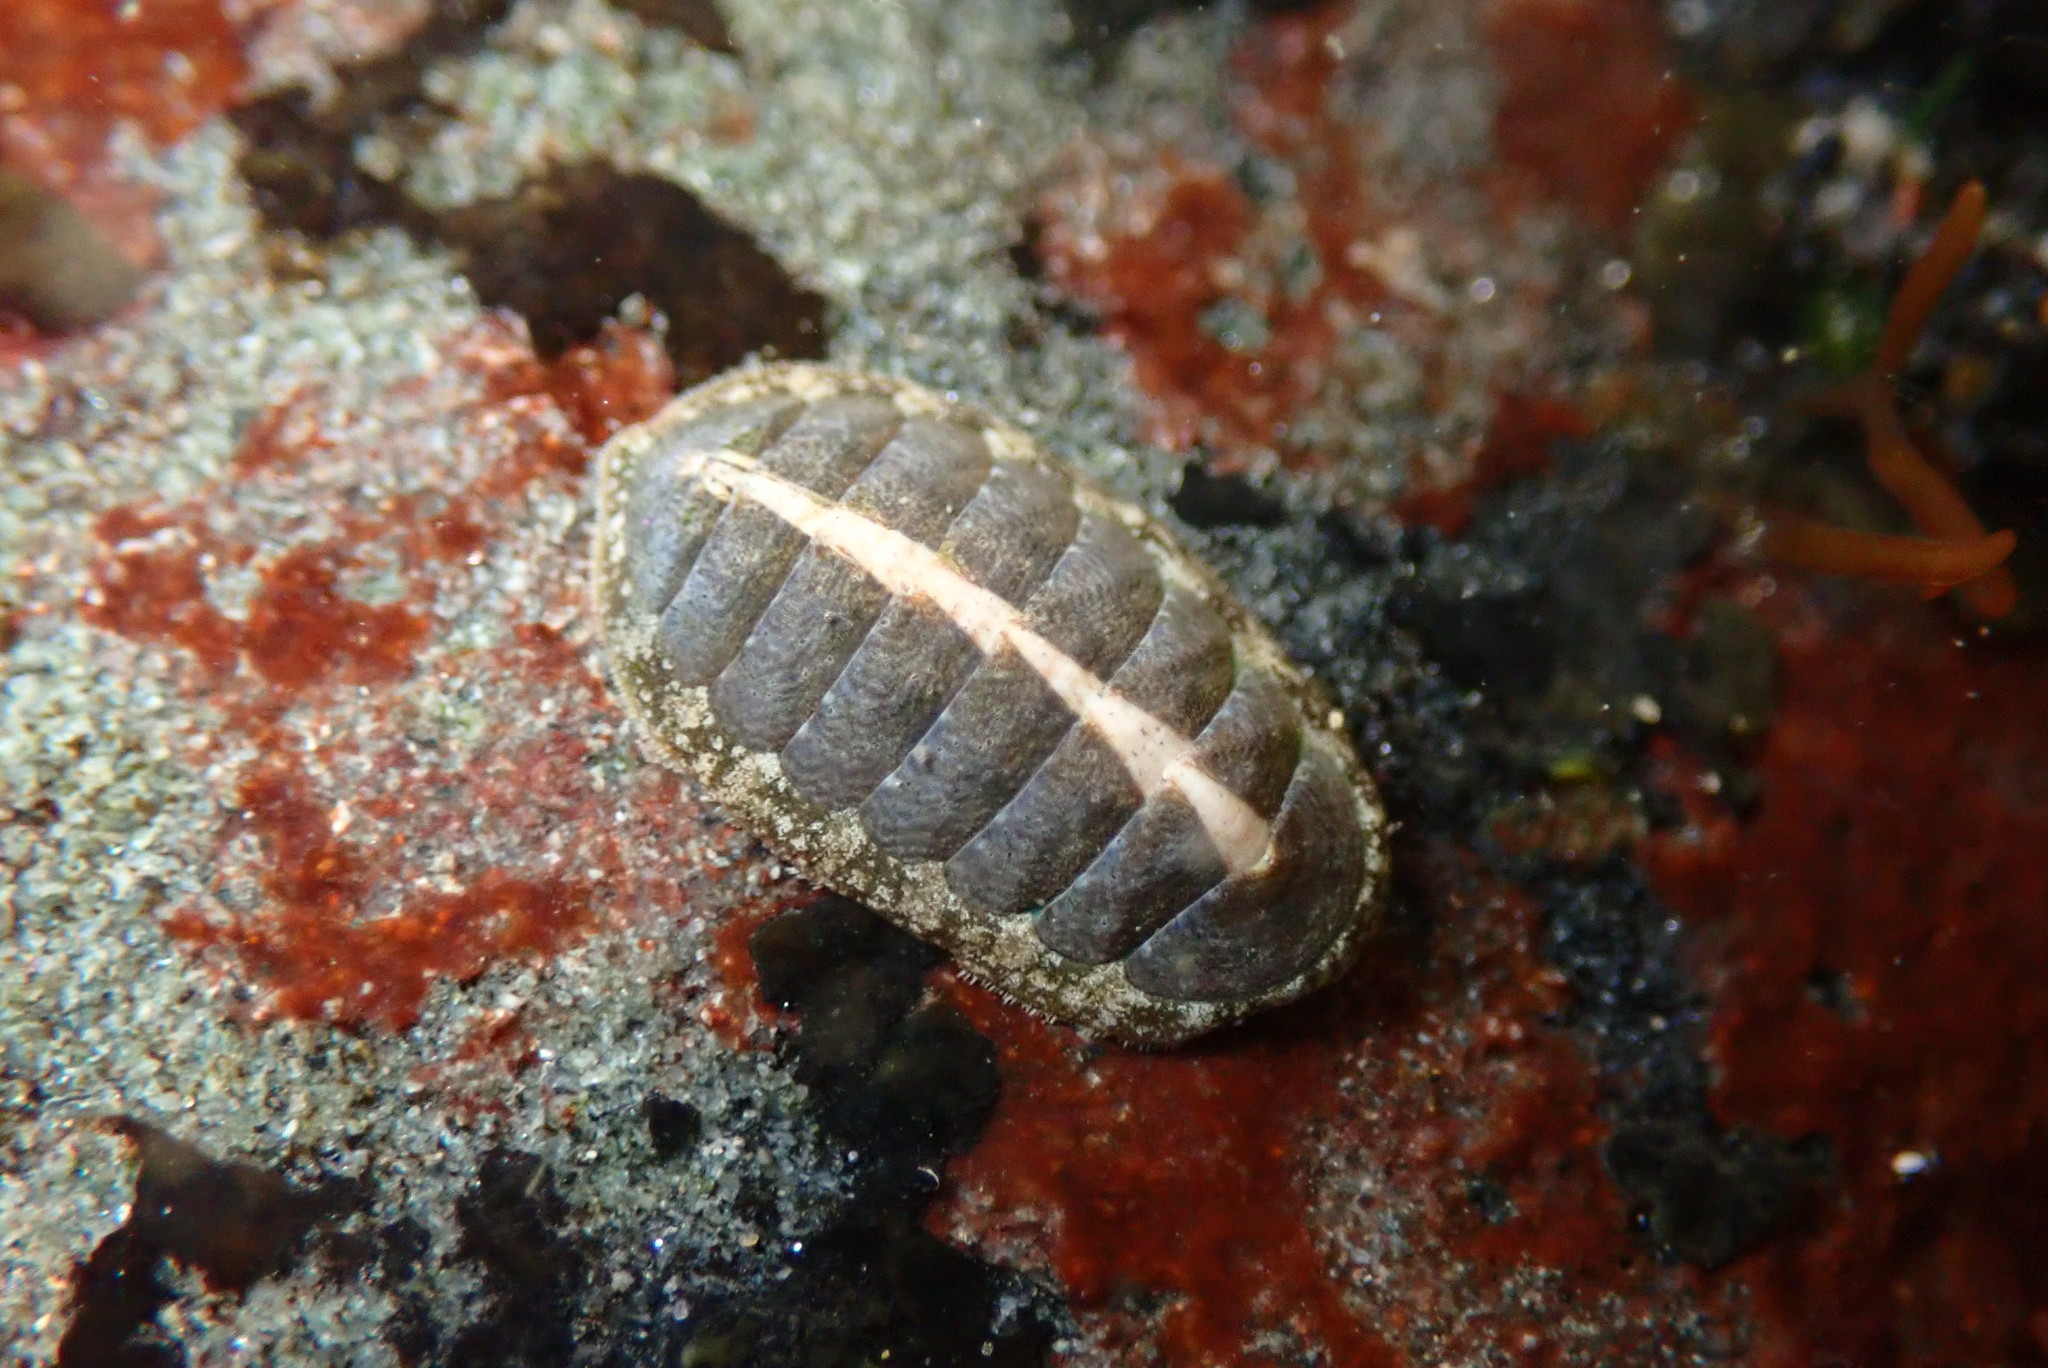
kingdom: Animalia
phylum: Mollusca
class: Polyplacophora
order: Chitonida
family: Tonicellidae
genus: Cyanoplax
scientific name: Cyanoplax keepiana
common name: Keep's chiton
